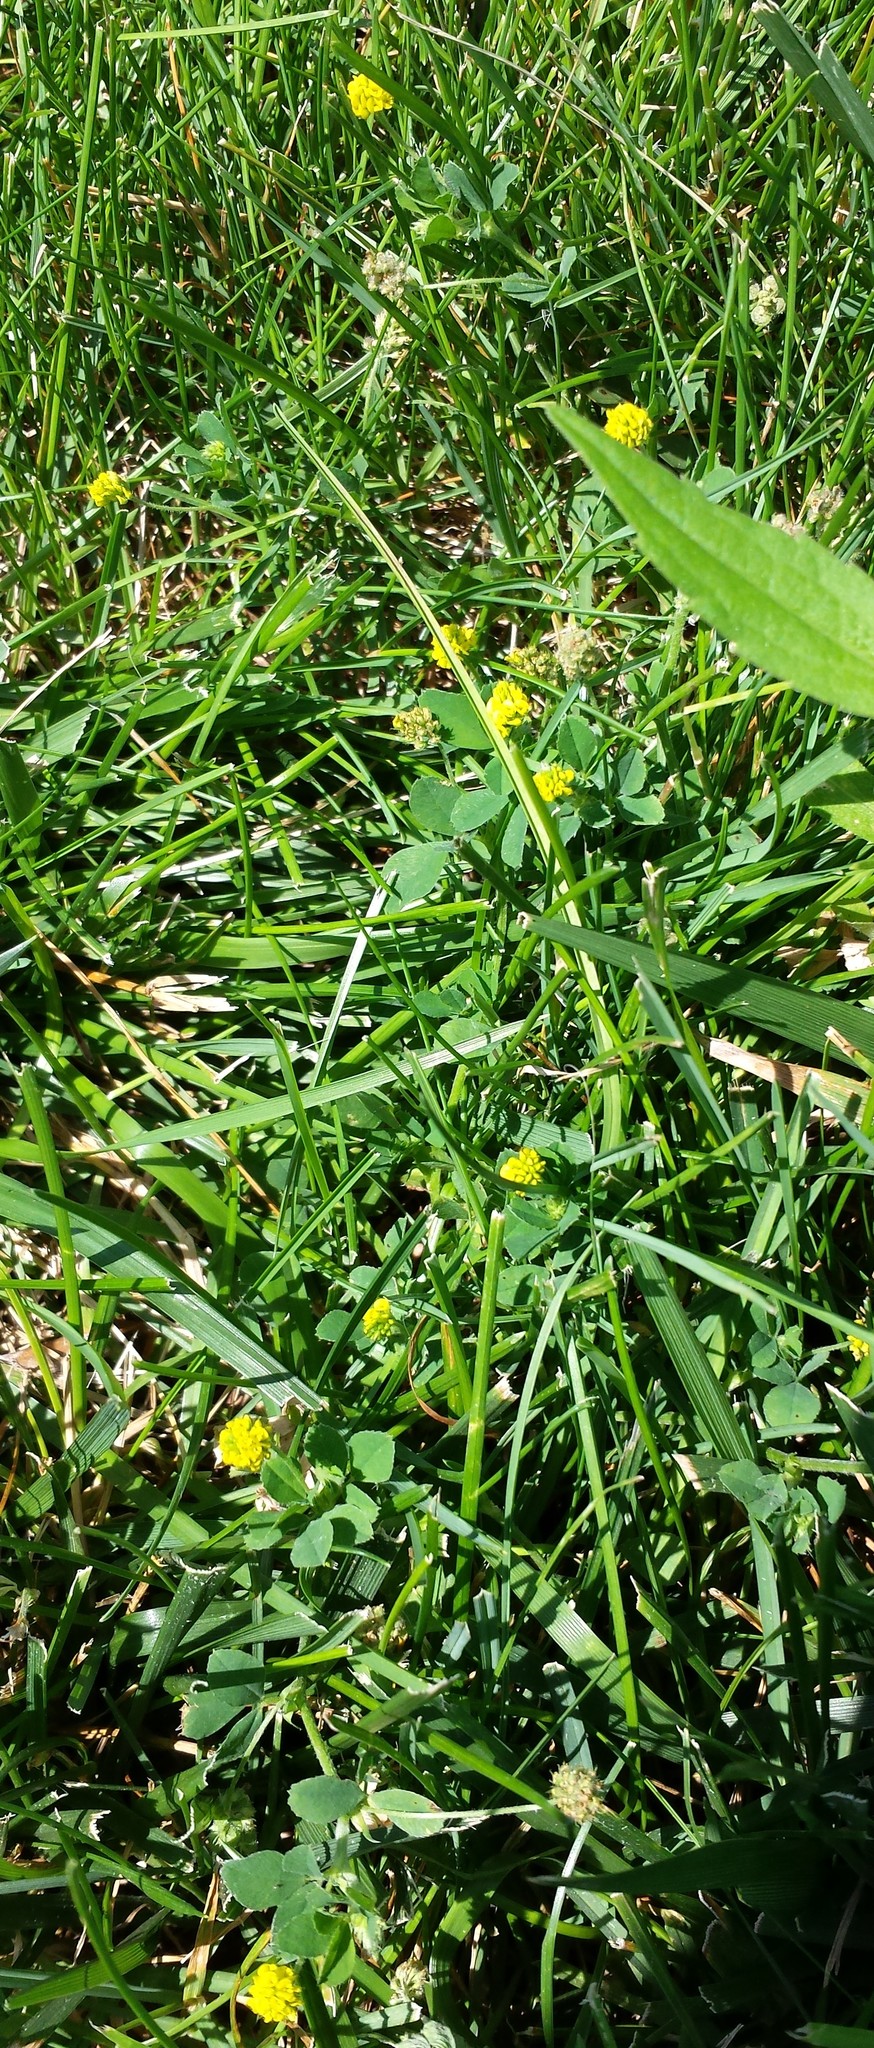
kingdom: Plantae
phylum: Tracheophyta
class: Magnoliopsida
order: Fabales
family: Fabaceae
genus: Medicago
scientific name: Medicago lupulina
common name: Black medick
